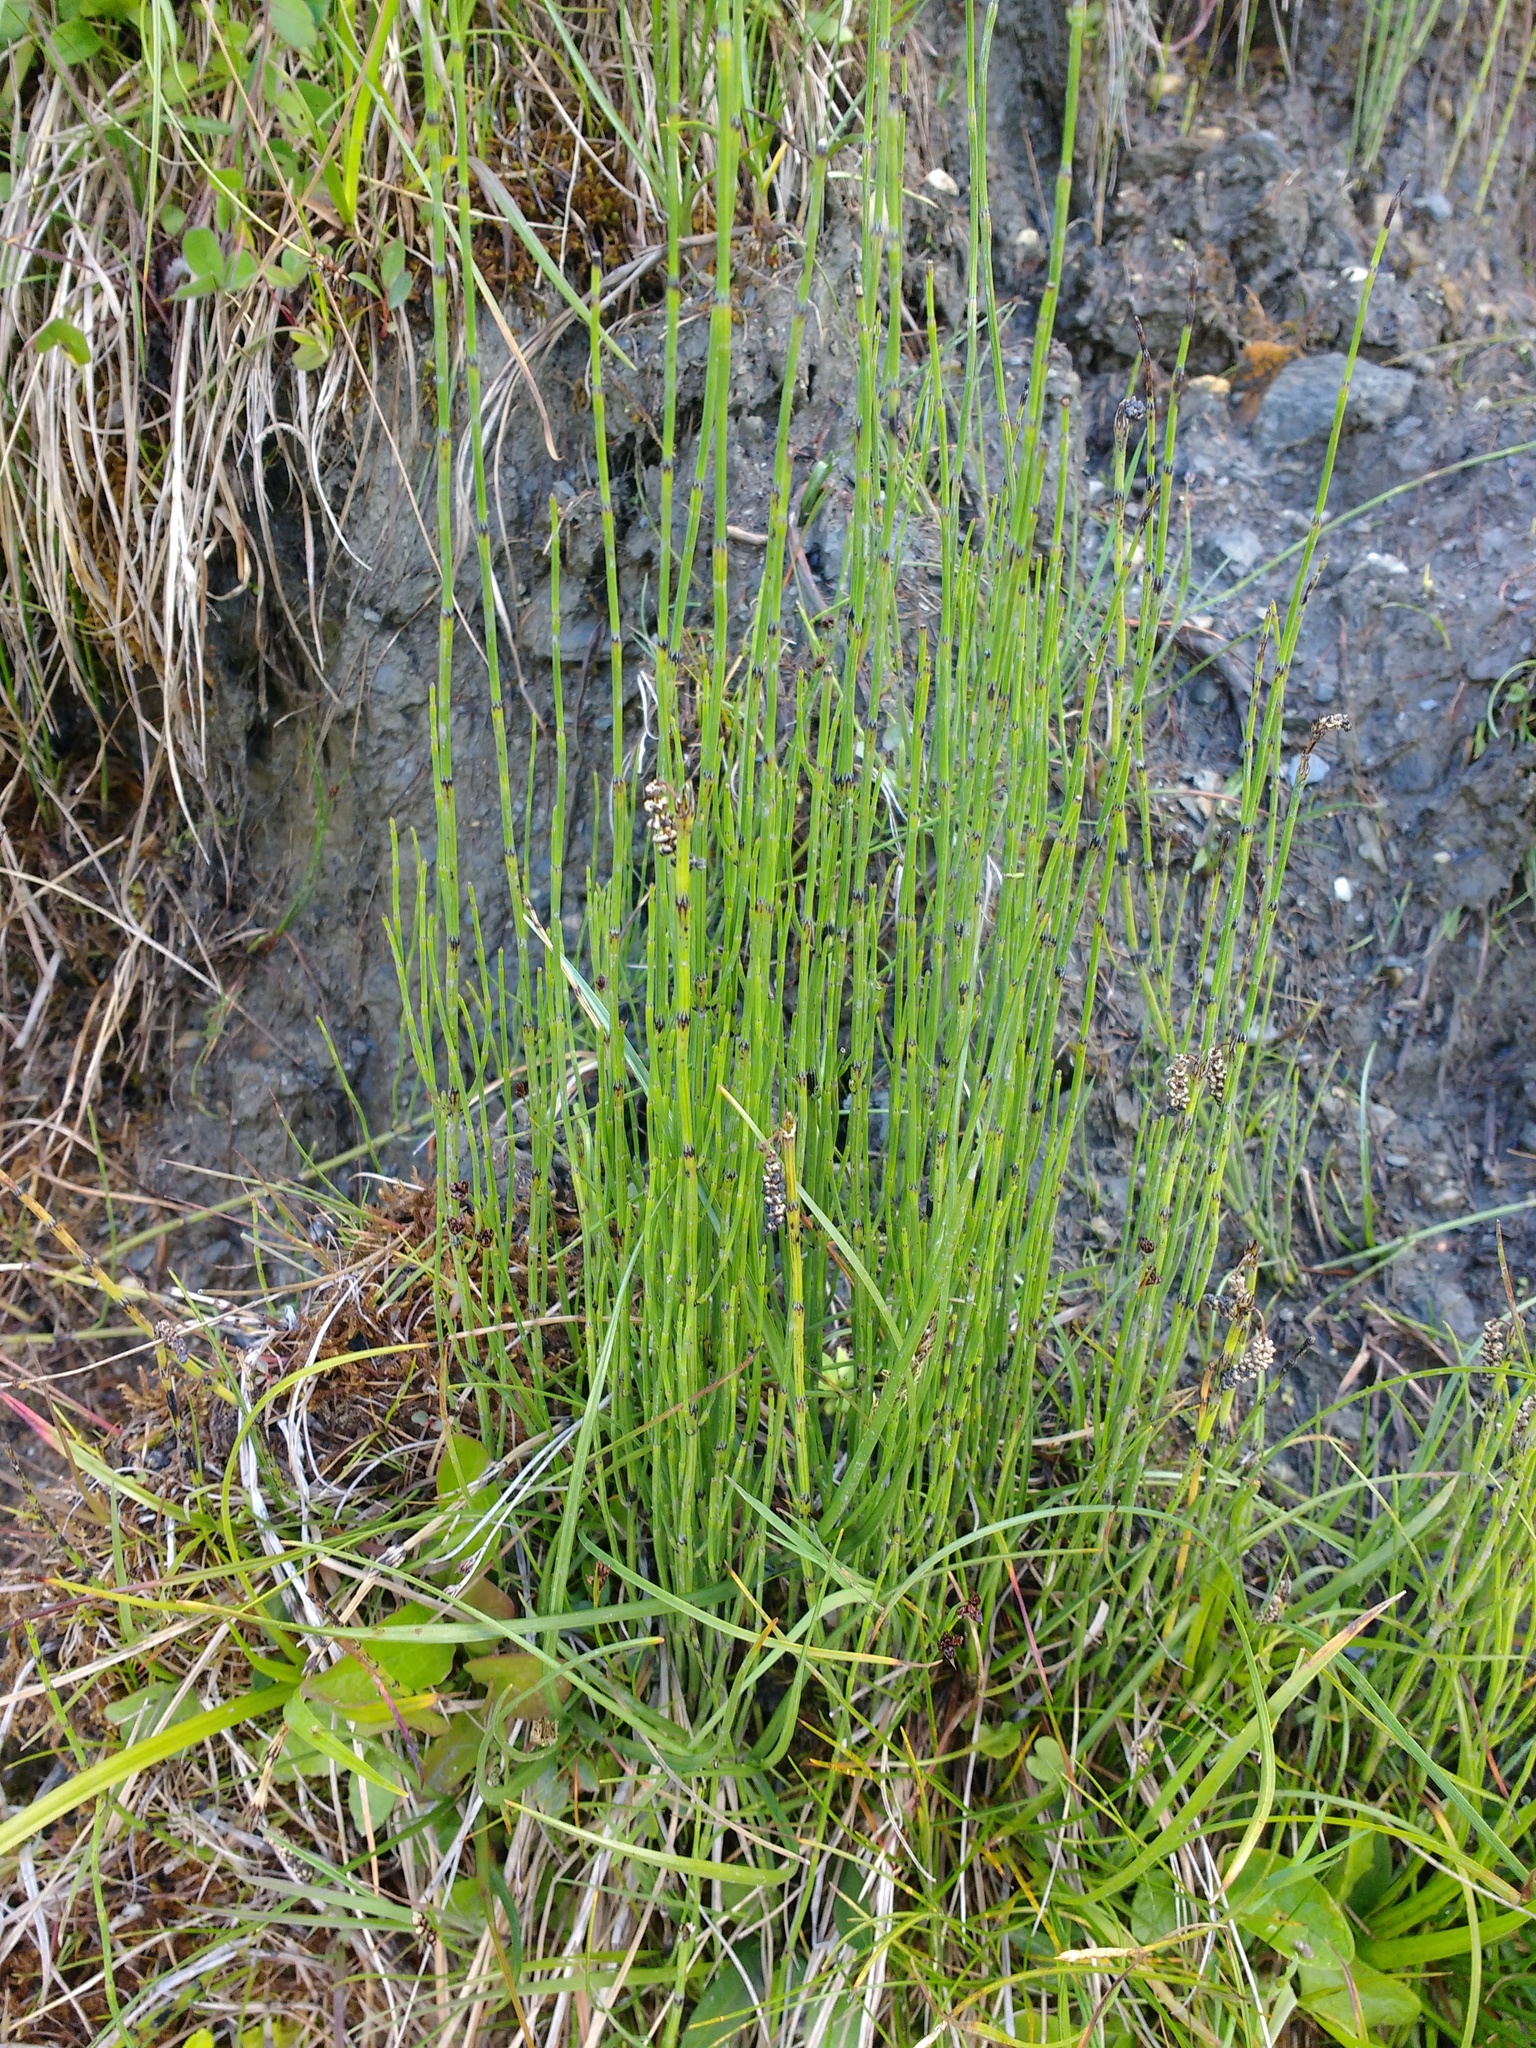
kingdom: Plantae
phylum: Tracheophyta
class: Polypodiopsida
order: Equisetales
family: Equisetaceae
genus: Equisetum
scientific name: Equisetum palustre
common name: Marsh horsetail
